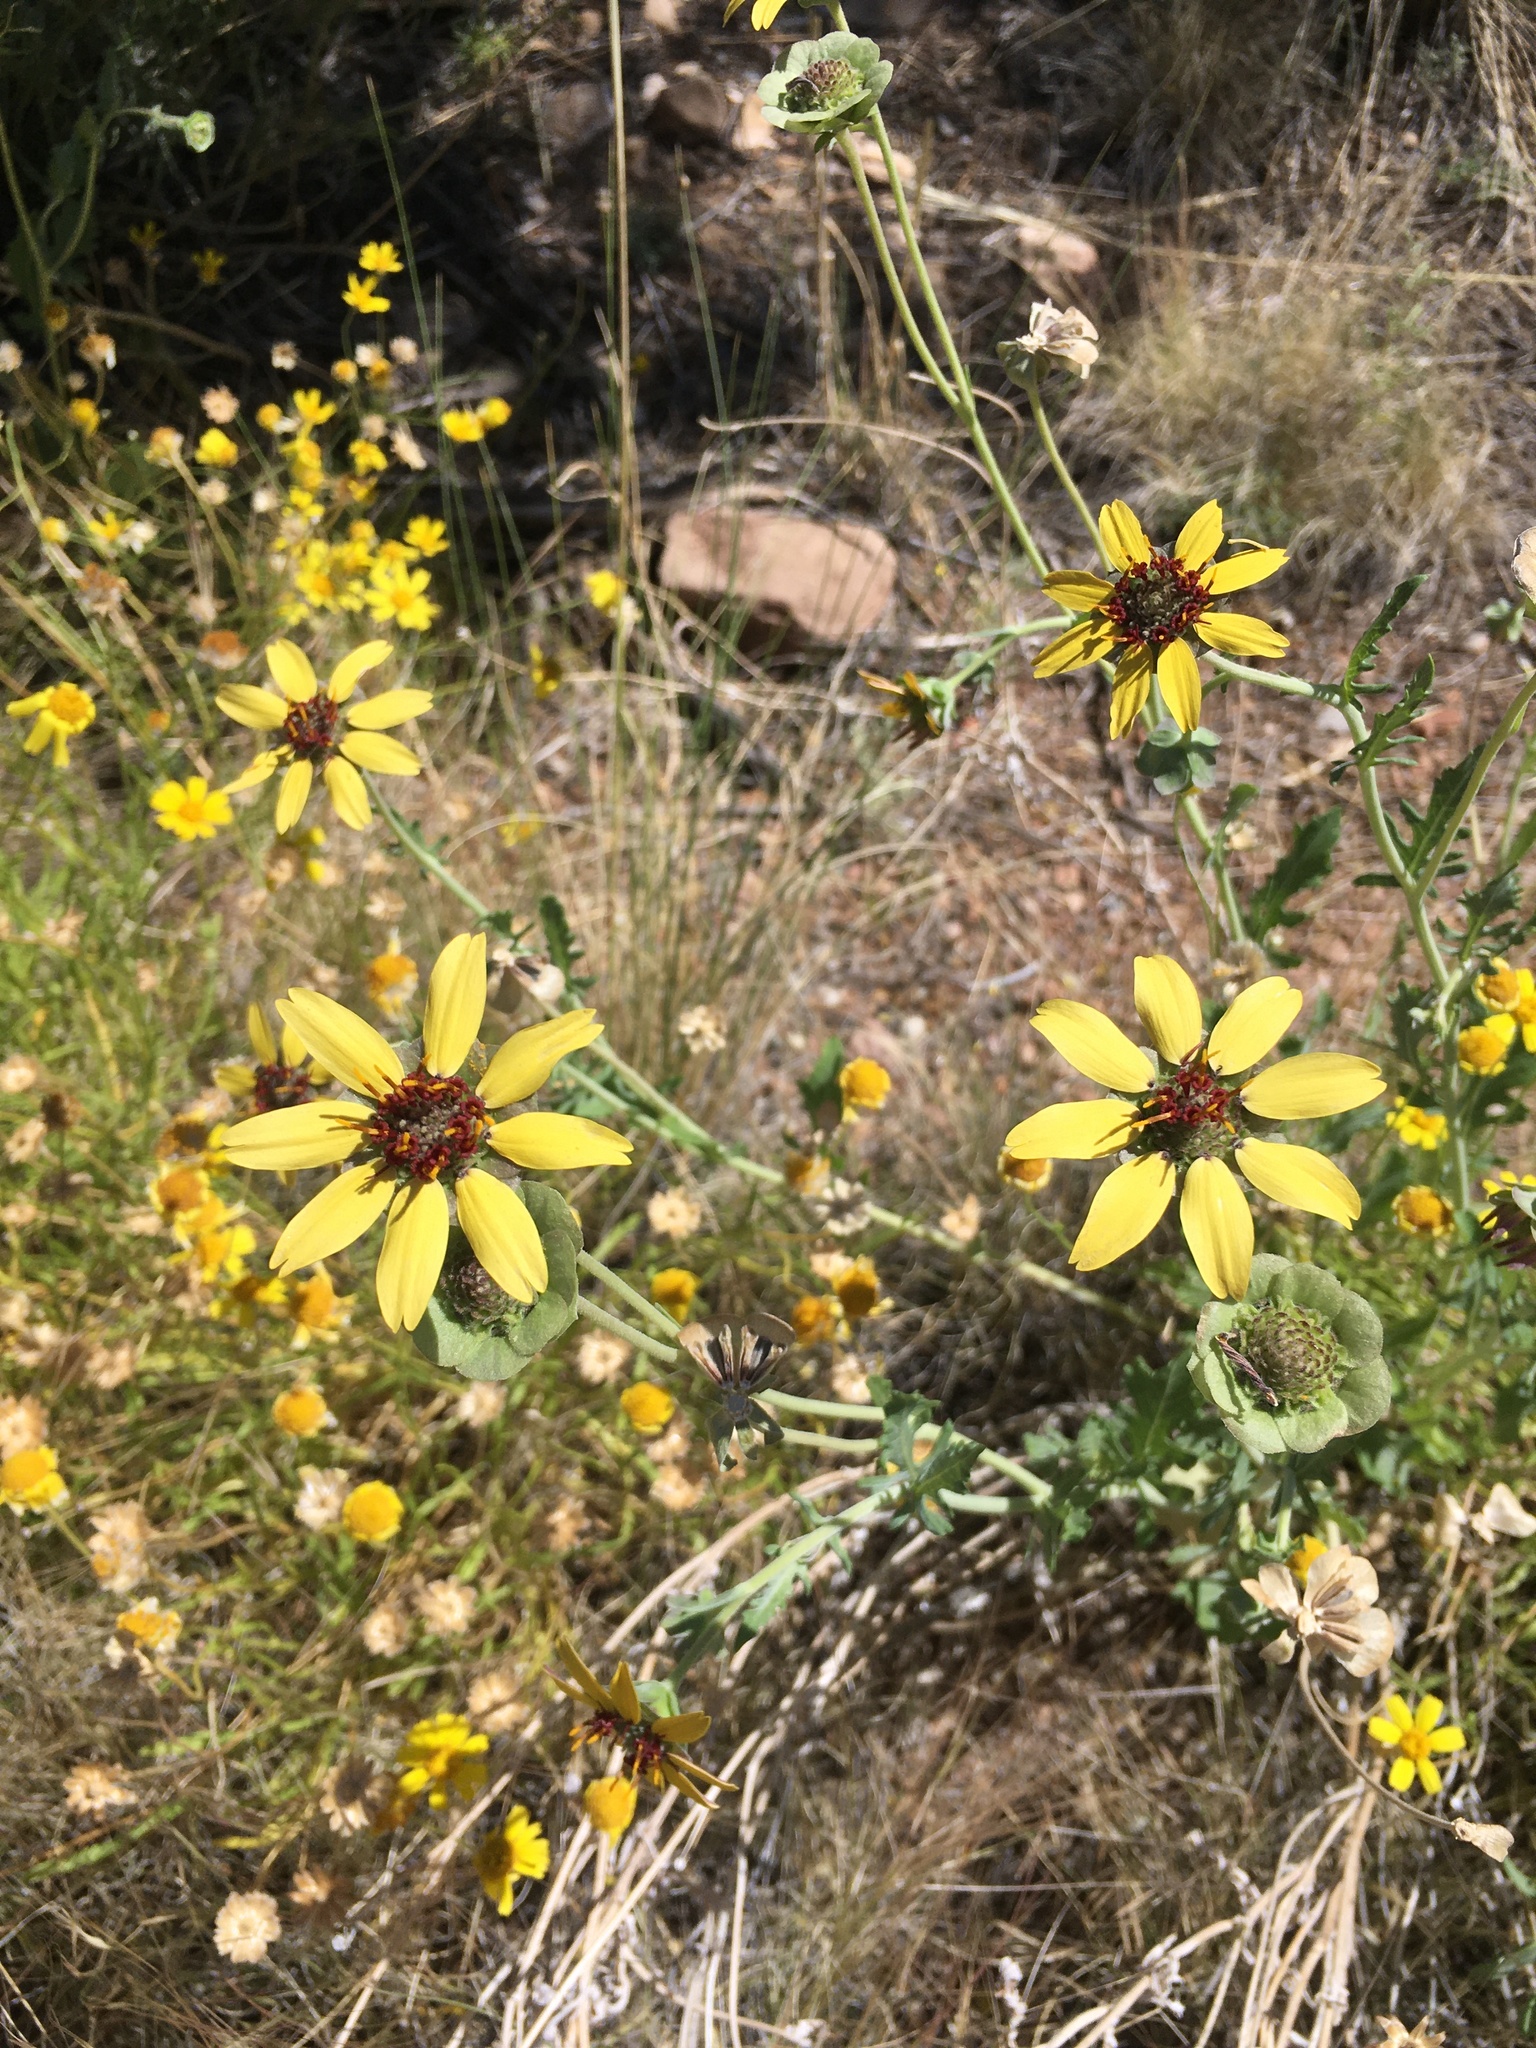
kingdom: Plantae
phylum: Tracheophyta
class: Magnoliopsida
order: Asterales
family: Asteraceae
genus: Berlandiera
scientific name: Berlandiera lyrata
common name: Chocolate-flower
